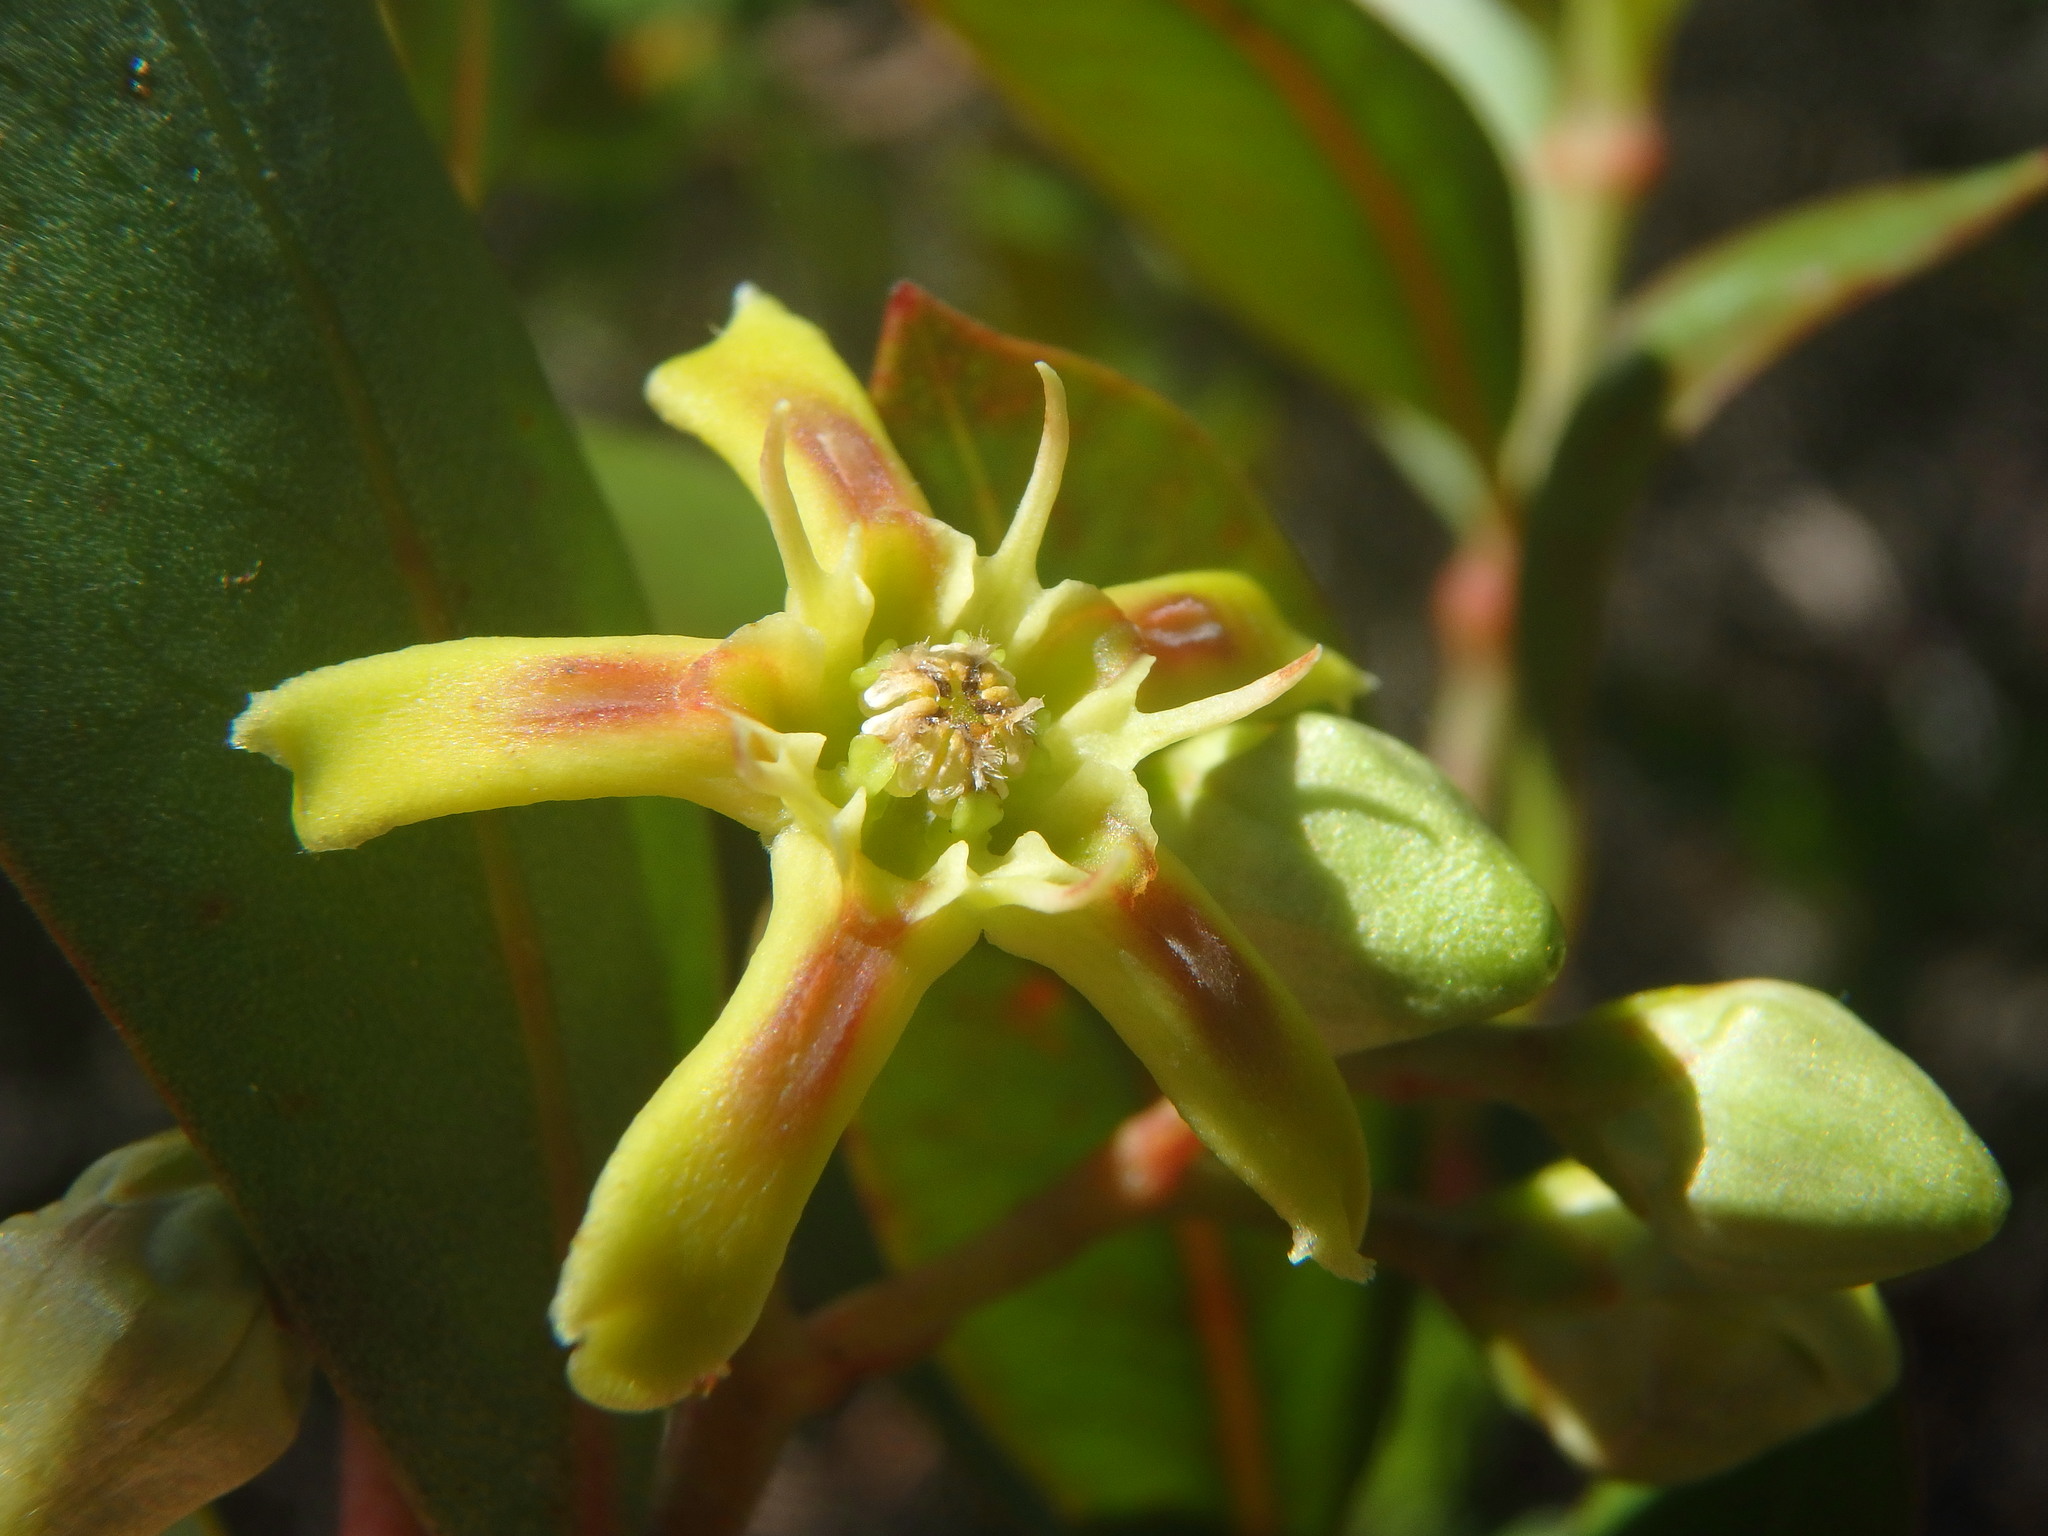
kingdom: Plantae
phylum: Tracheophyta
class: Magnoliopsida
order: Gentianales
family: Apocynaceae
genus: Periploca
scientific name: Periploca laevigata
